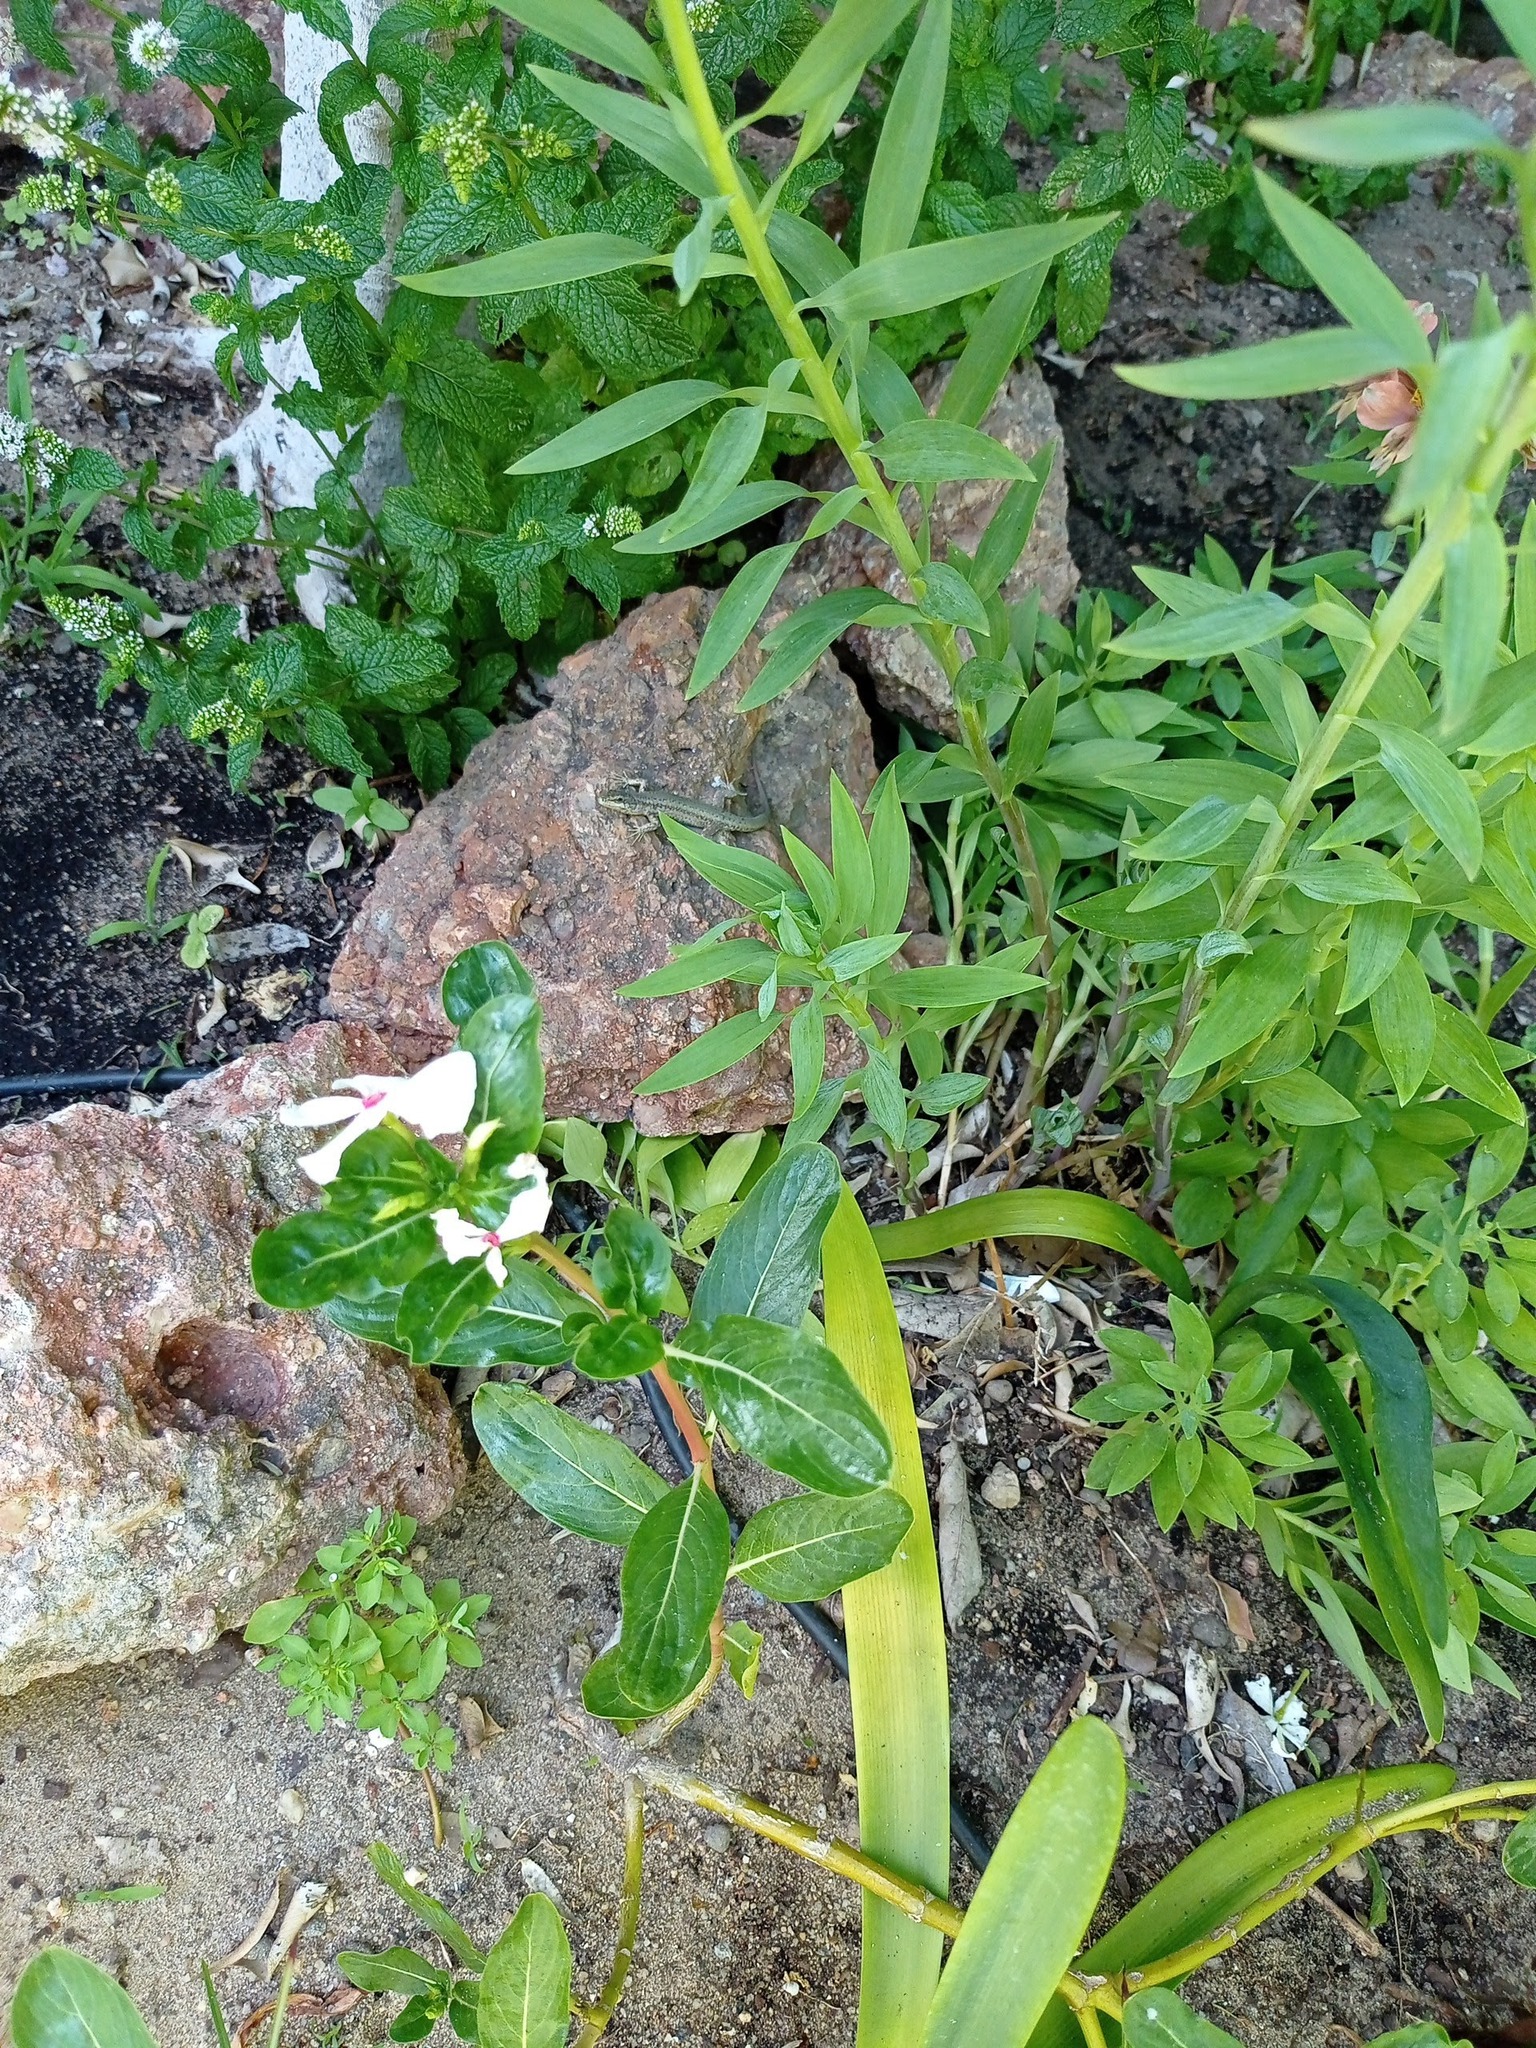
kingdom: Plantae
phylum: Tracheophyta
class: Magnoliopsida
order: Gentianales
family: Apocynaceae
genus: Catharanthus
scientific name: Catharanthus roseus
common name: Madagascar periwinkle
